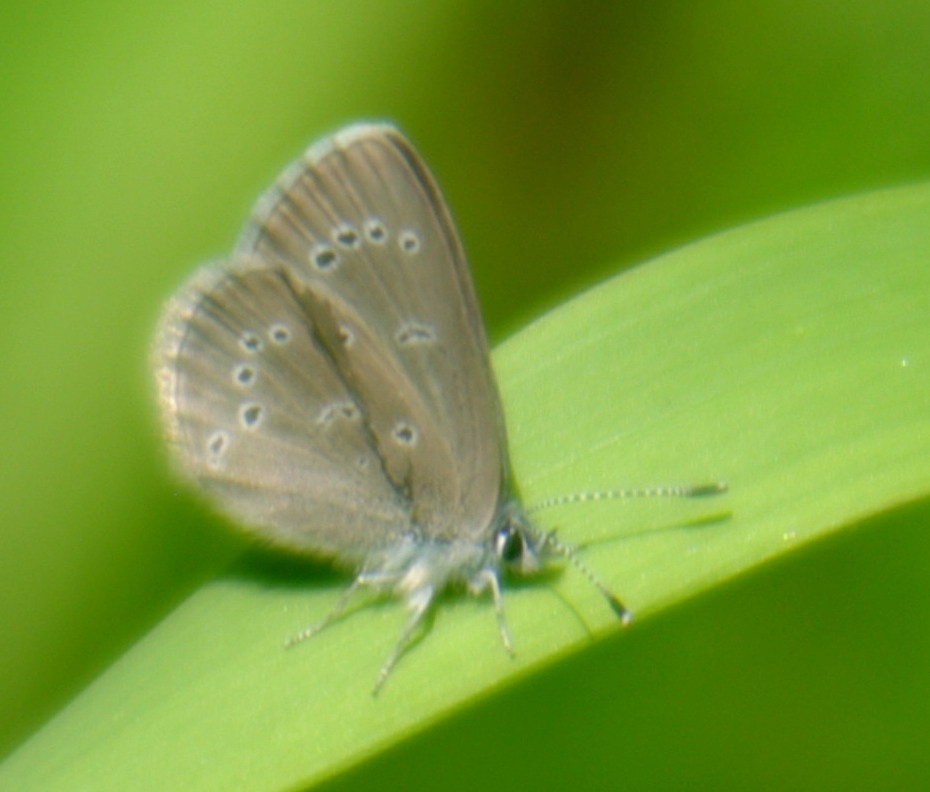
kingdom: Animalia
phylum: Arthropoda
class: Insecta
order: Lepidoptera
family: Lycaenidae
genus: Glaucopsyche
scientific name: Glaucopsyche lygdamus
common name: Silvery blue
